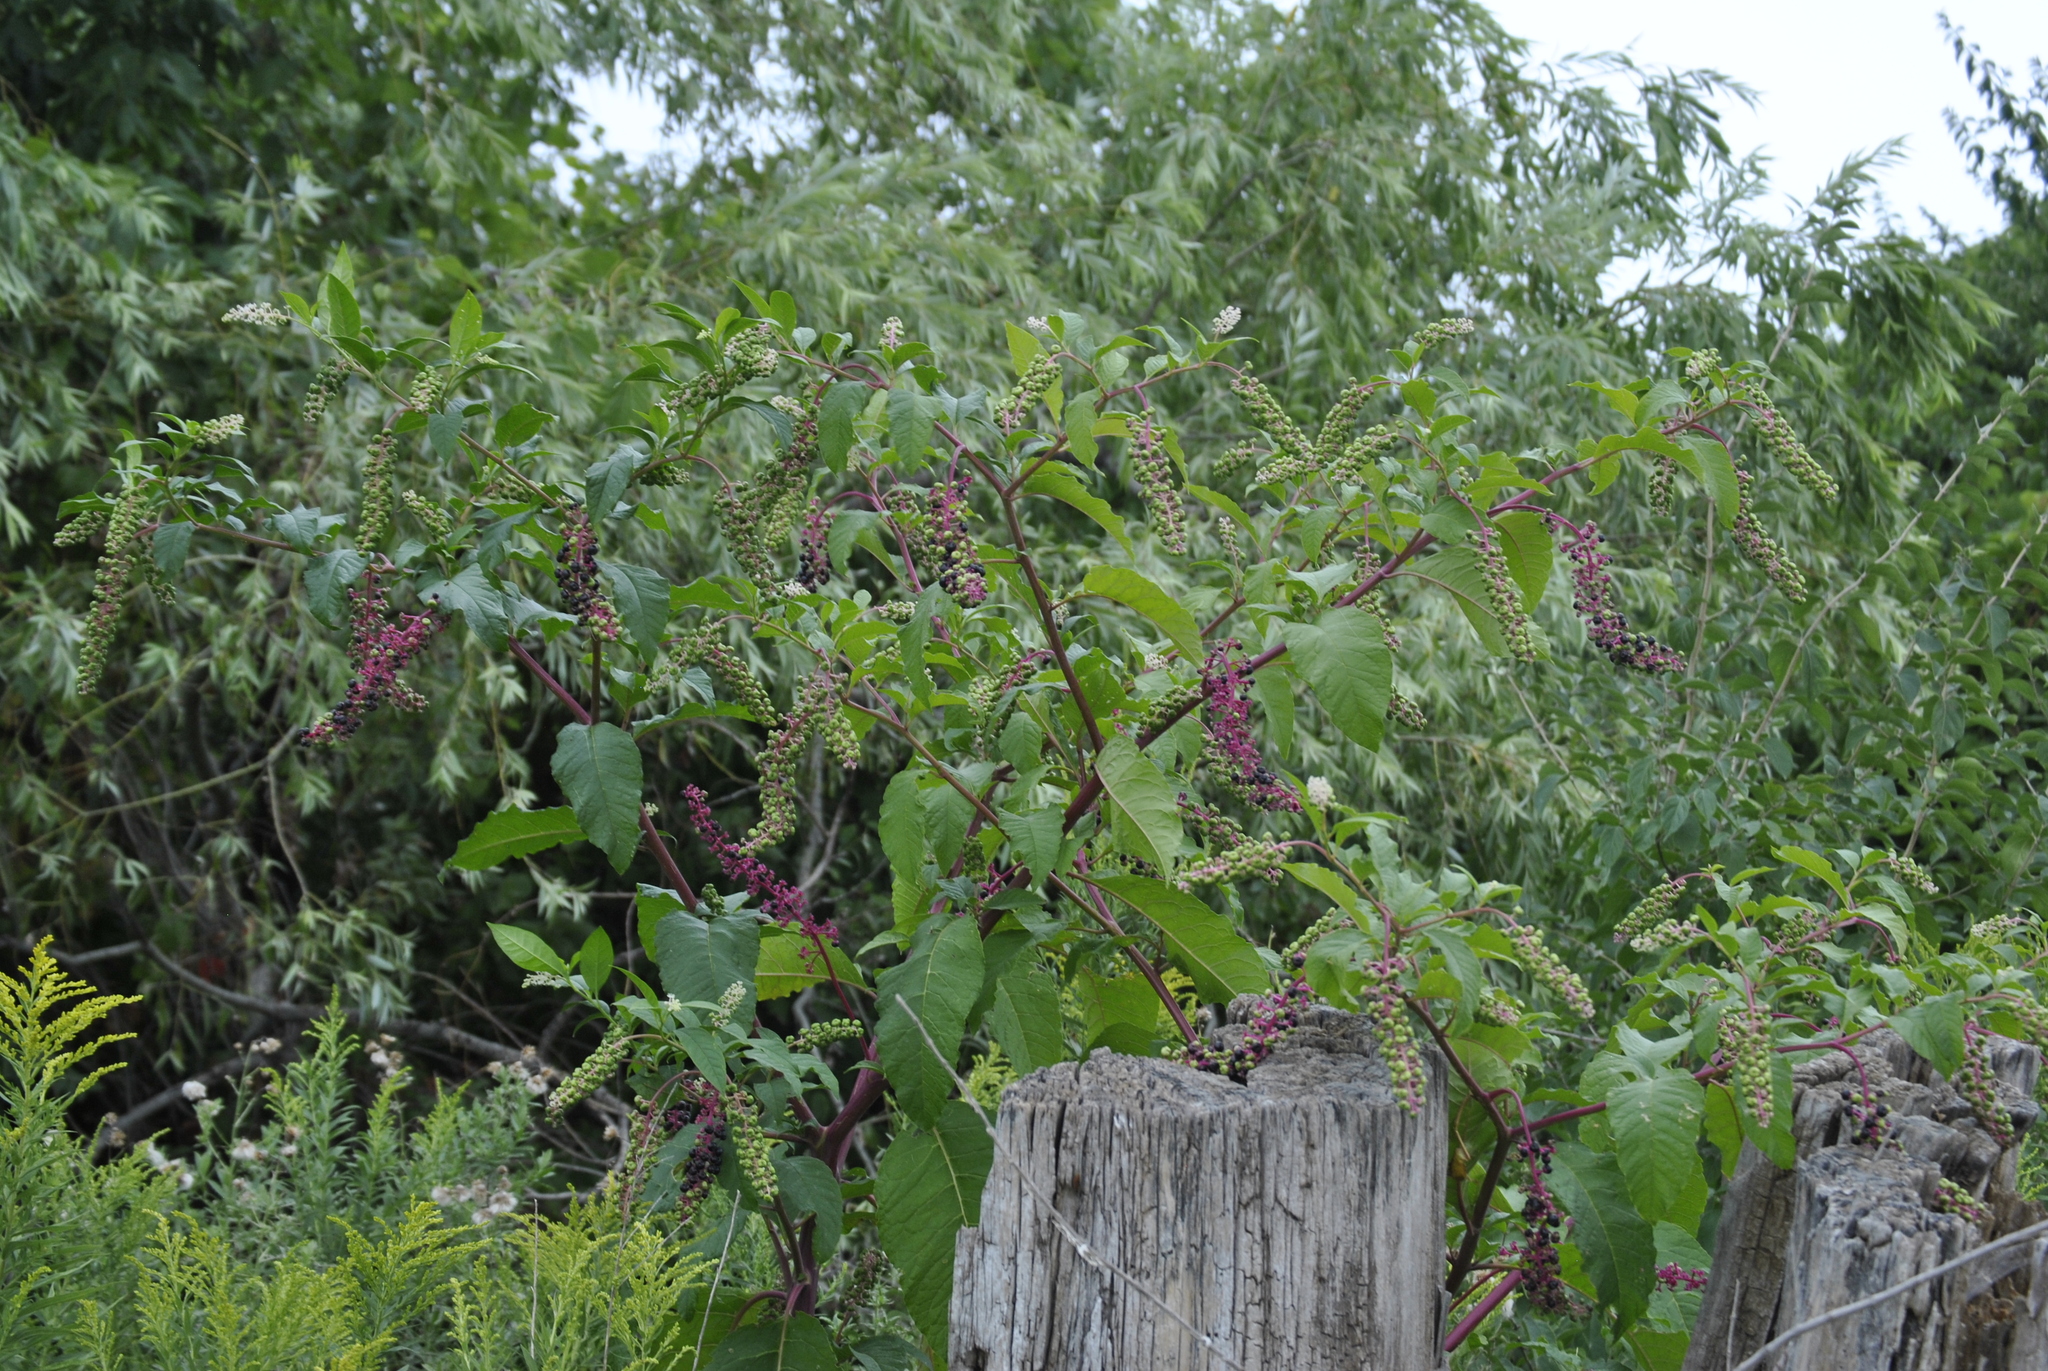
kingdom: Plantae
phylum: Tracheophyta
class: Magnoliopsida
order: Caryophyllales
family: Phytolaccaceae
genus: Phytolacca
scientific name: Phytolacca americana
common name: American pokeweed
